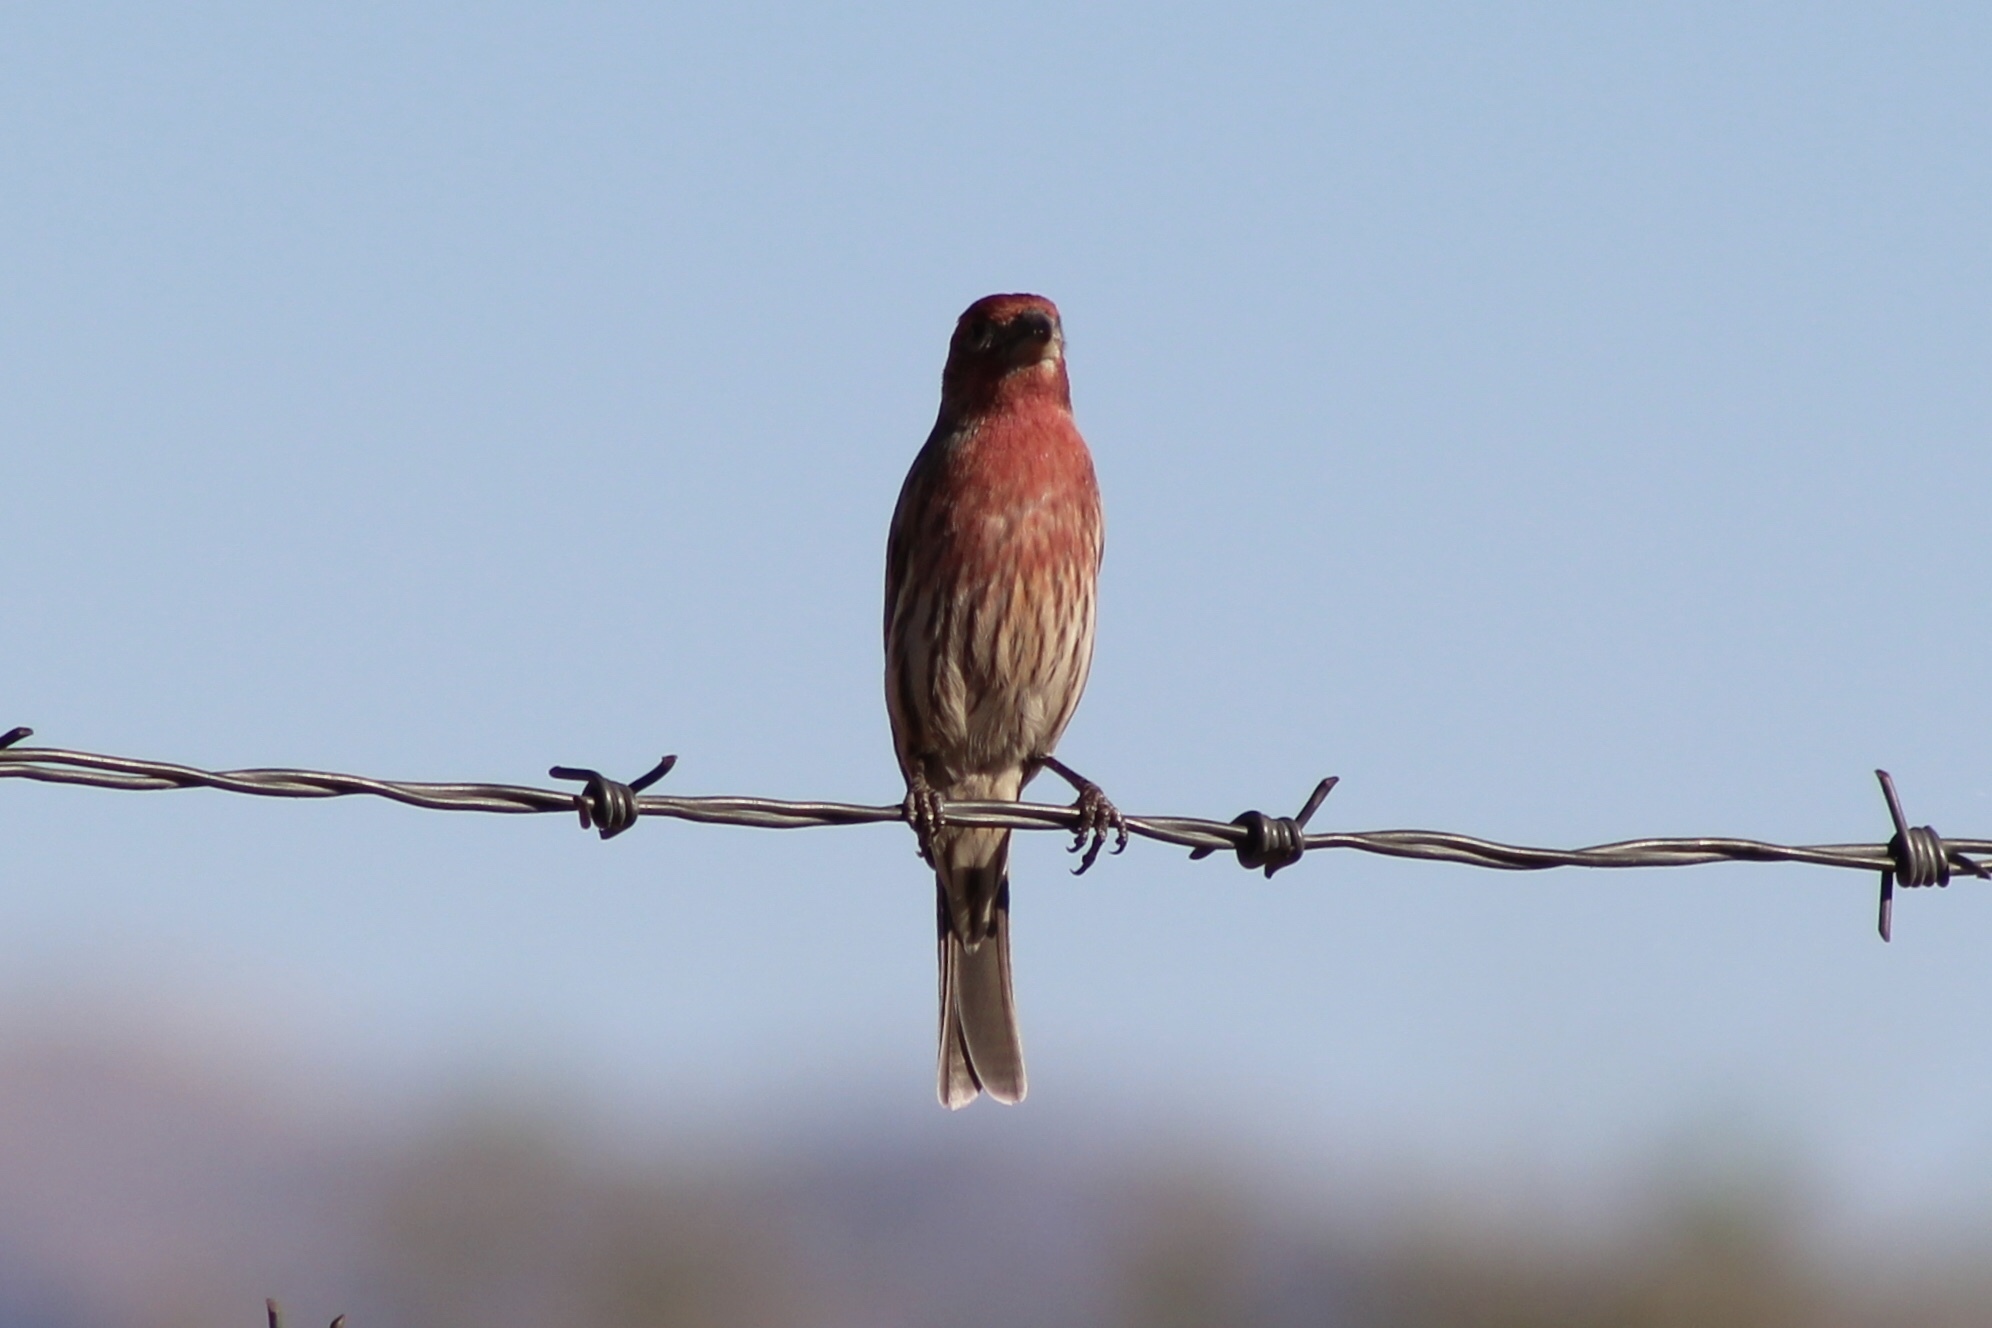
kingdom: Animalia
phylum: Chordata
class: Aves
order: Passeriformes
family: Fringillidae
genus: Haemorhous
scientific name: Haemorhous mexicanus
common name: House finch
